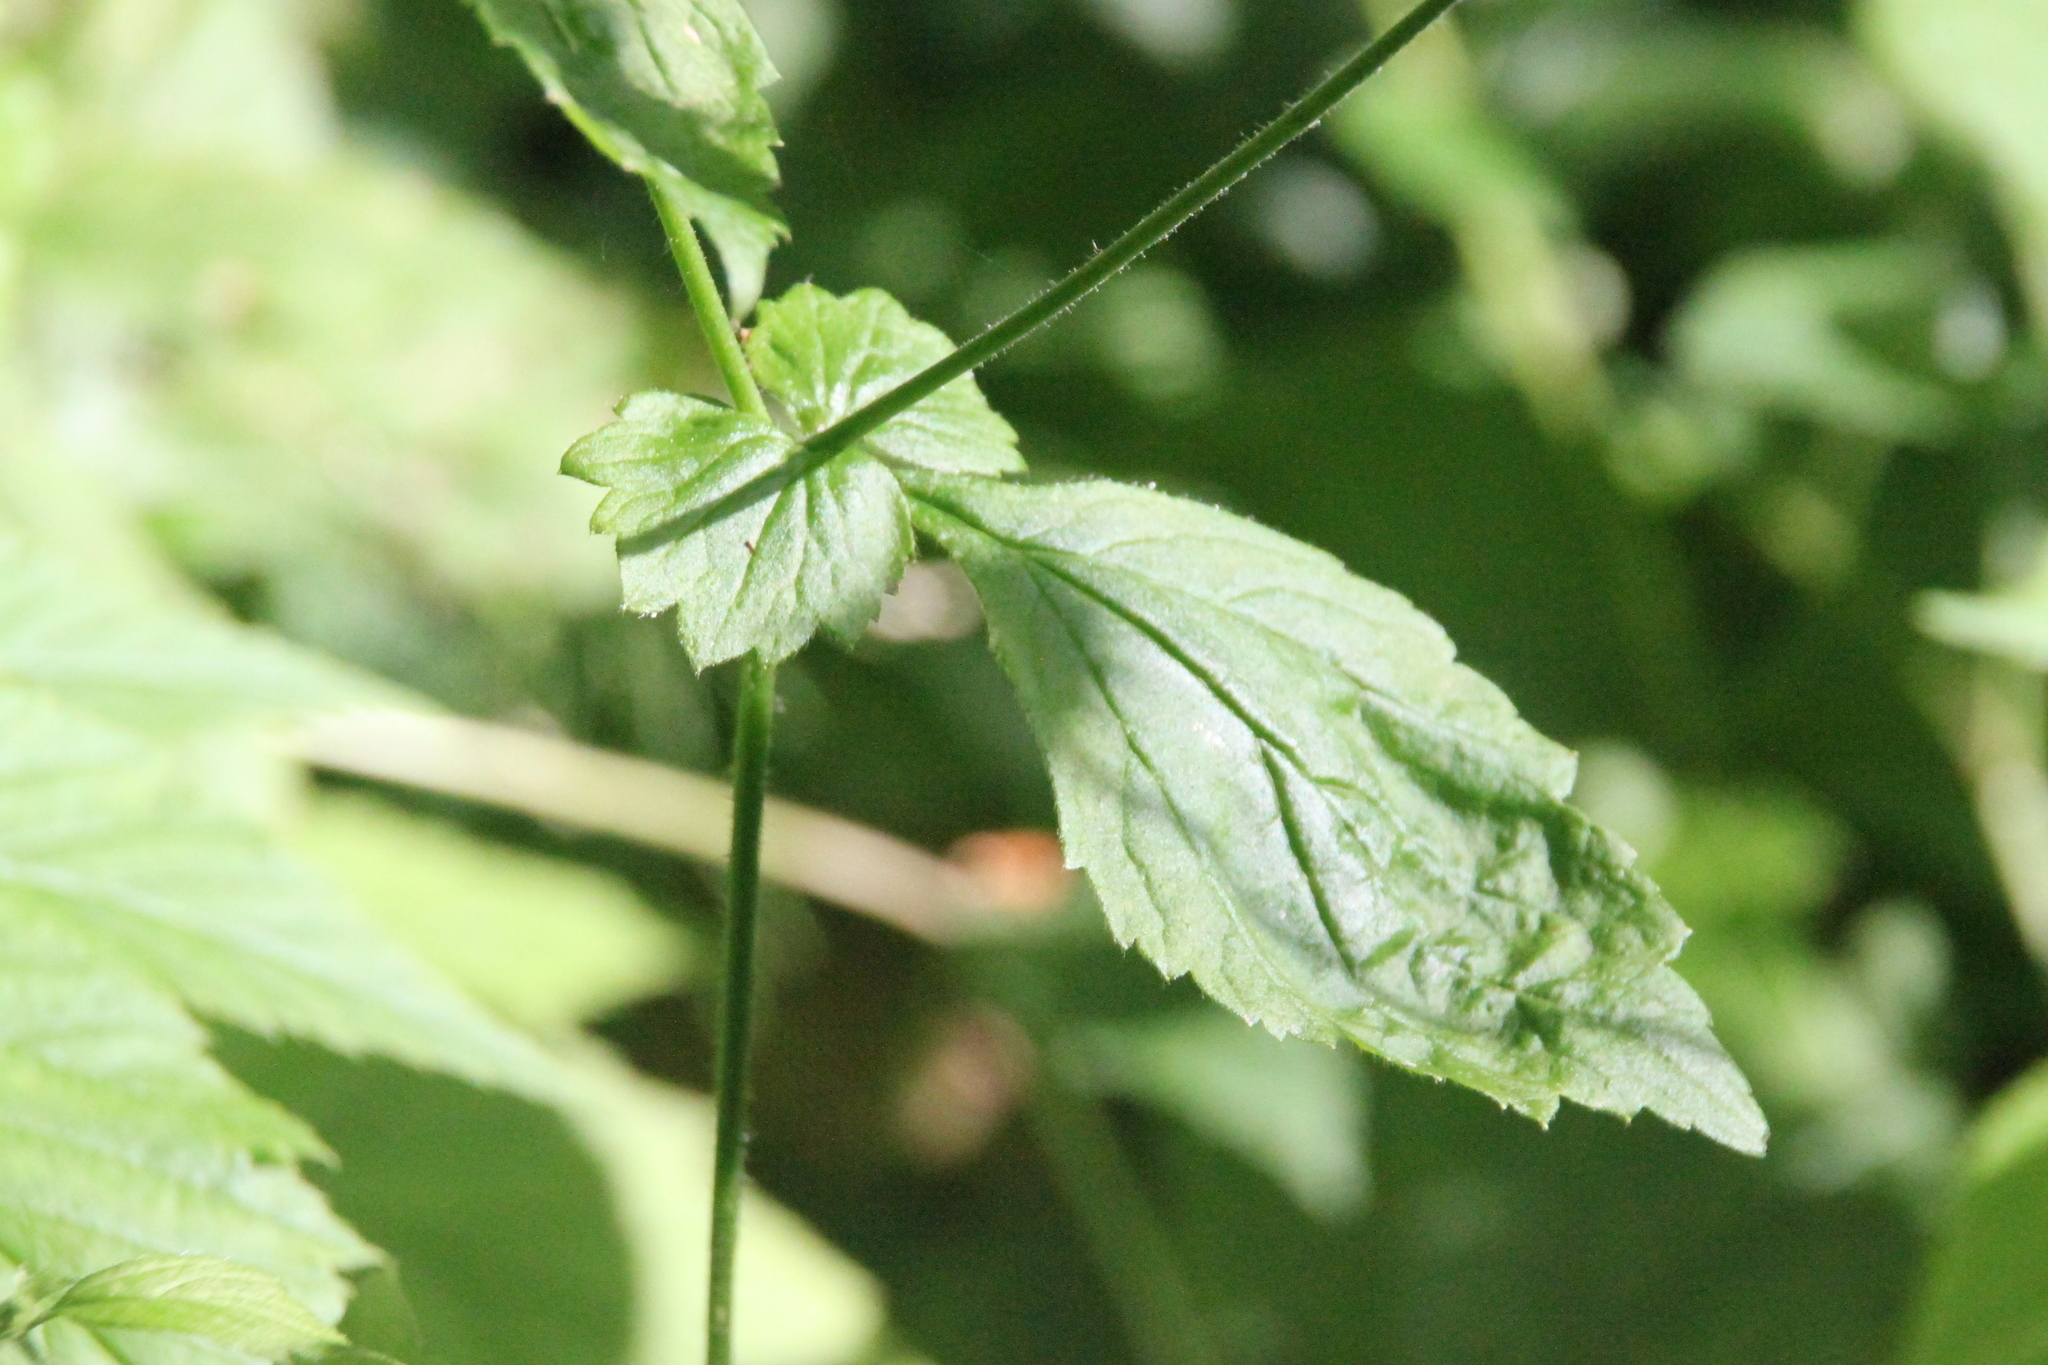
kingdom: Plantae
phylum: Tracheophyta
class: Magnoliopsida
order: Rosales
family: Rosaceae
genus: Geum
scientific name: Geum urbanum
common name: Wood avens
